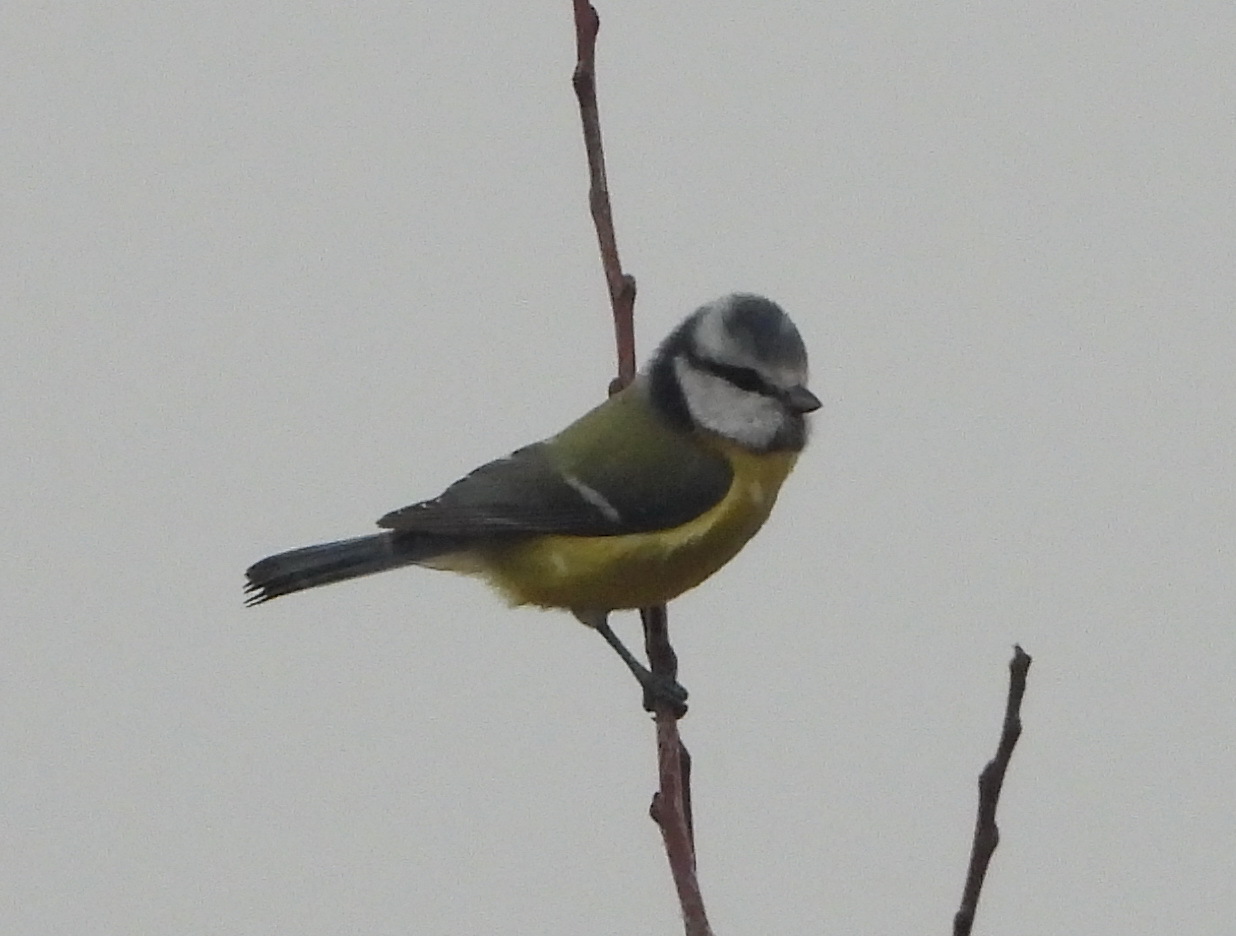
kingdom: Animalia
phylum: Chordata
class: Aves
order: Passeriformes
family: Paridae
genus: Cyanistes
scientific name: Cyanistes caeruleus
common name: Eurasian blue tit
